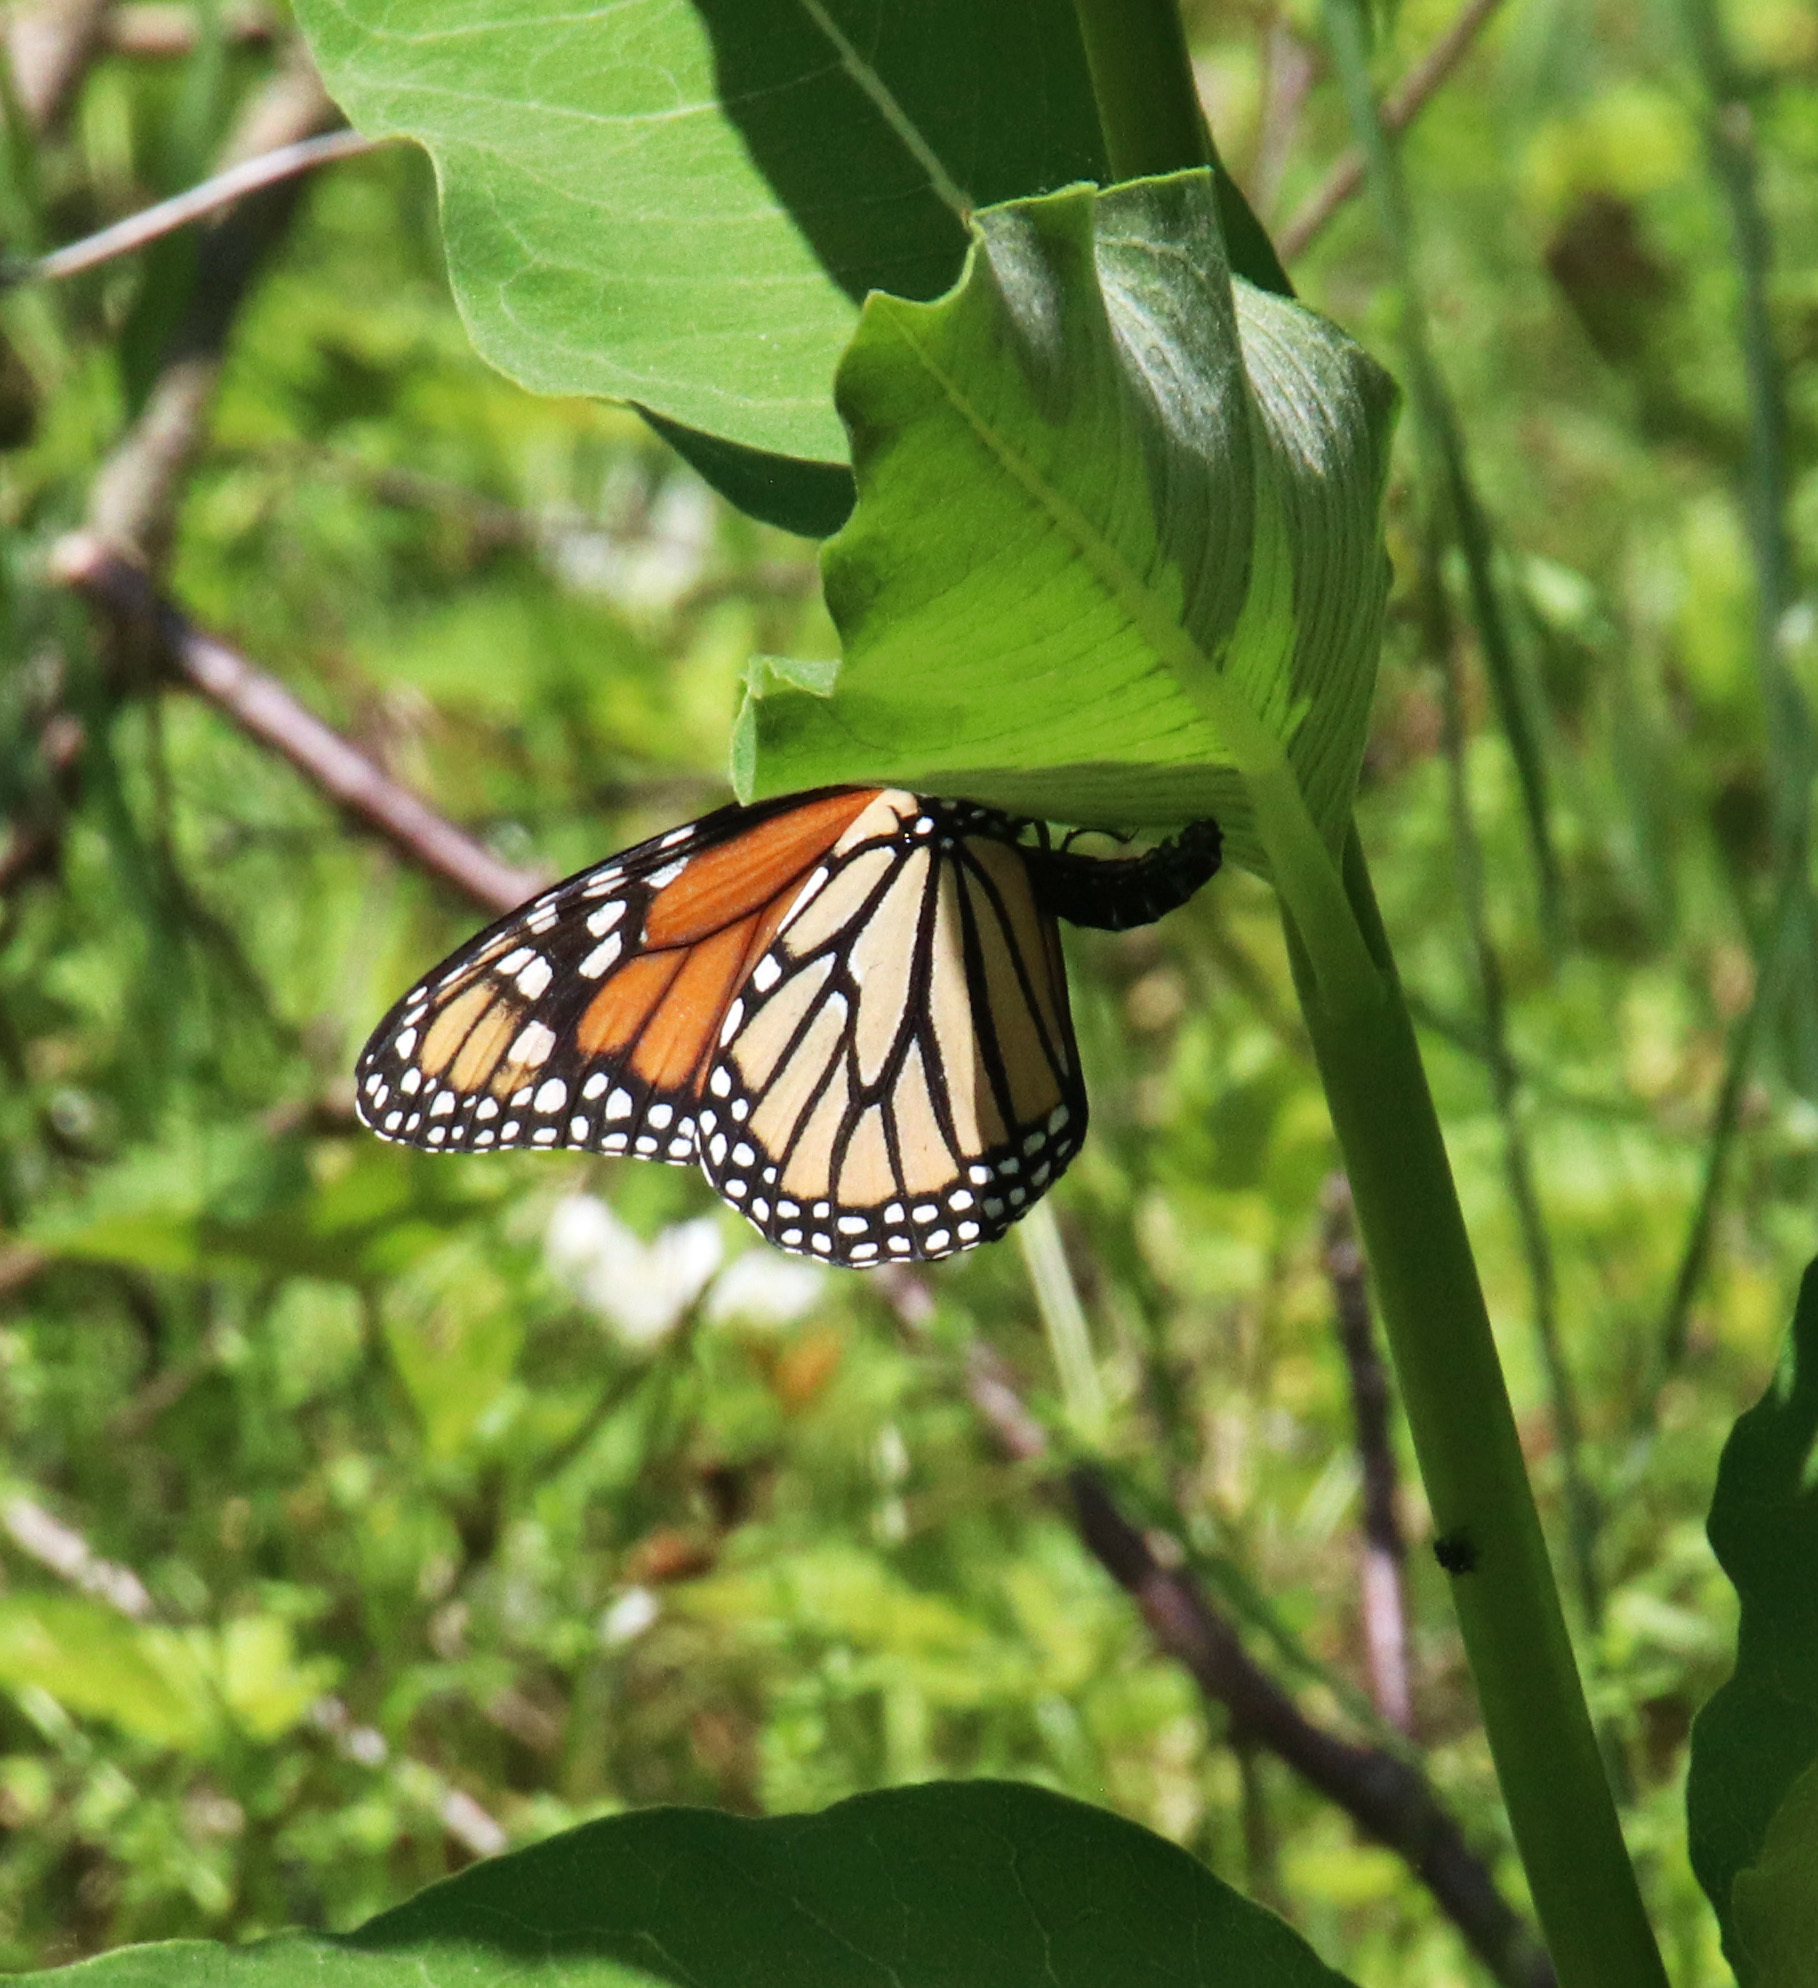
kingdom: Animalia
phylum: Arthropoda
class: Insecta
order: Lepidoptera
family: Nymphalidae
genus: Danaus
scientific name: Danaus plexippus
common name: Monarch
